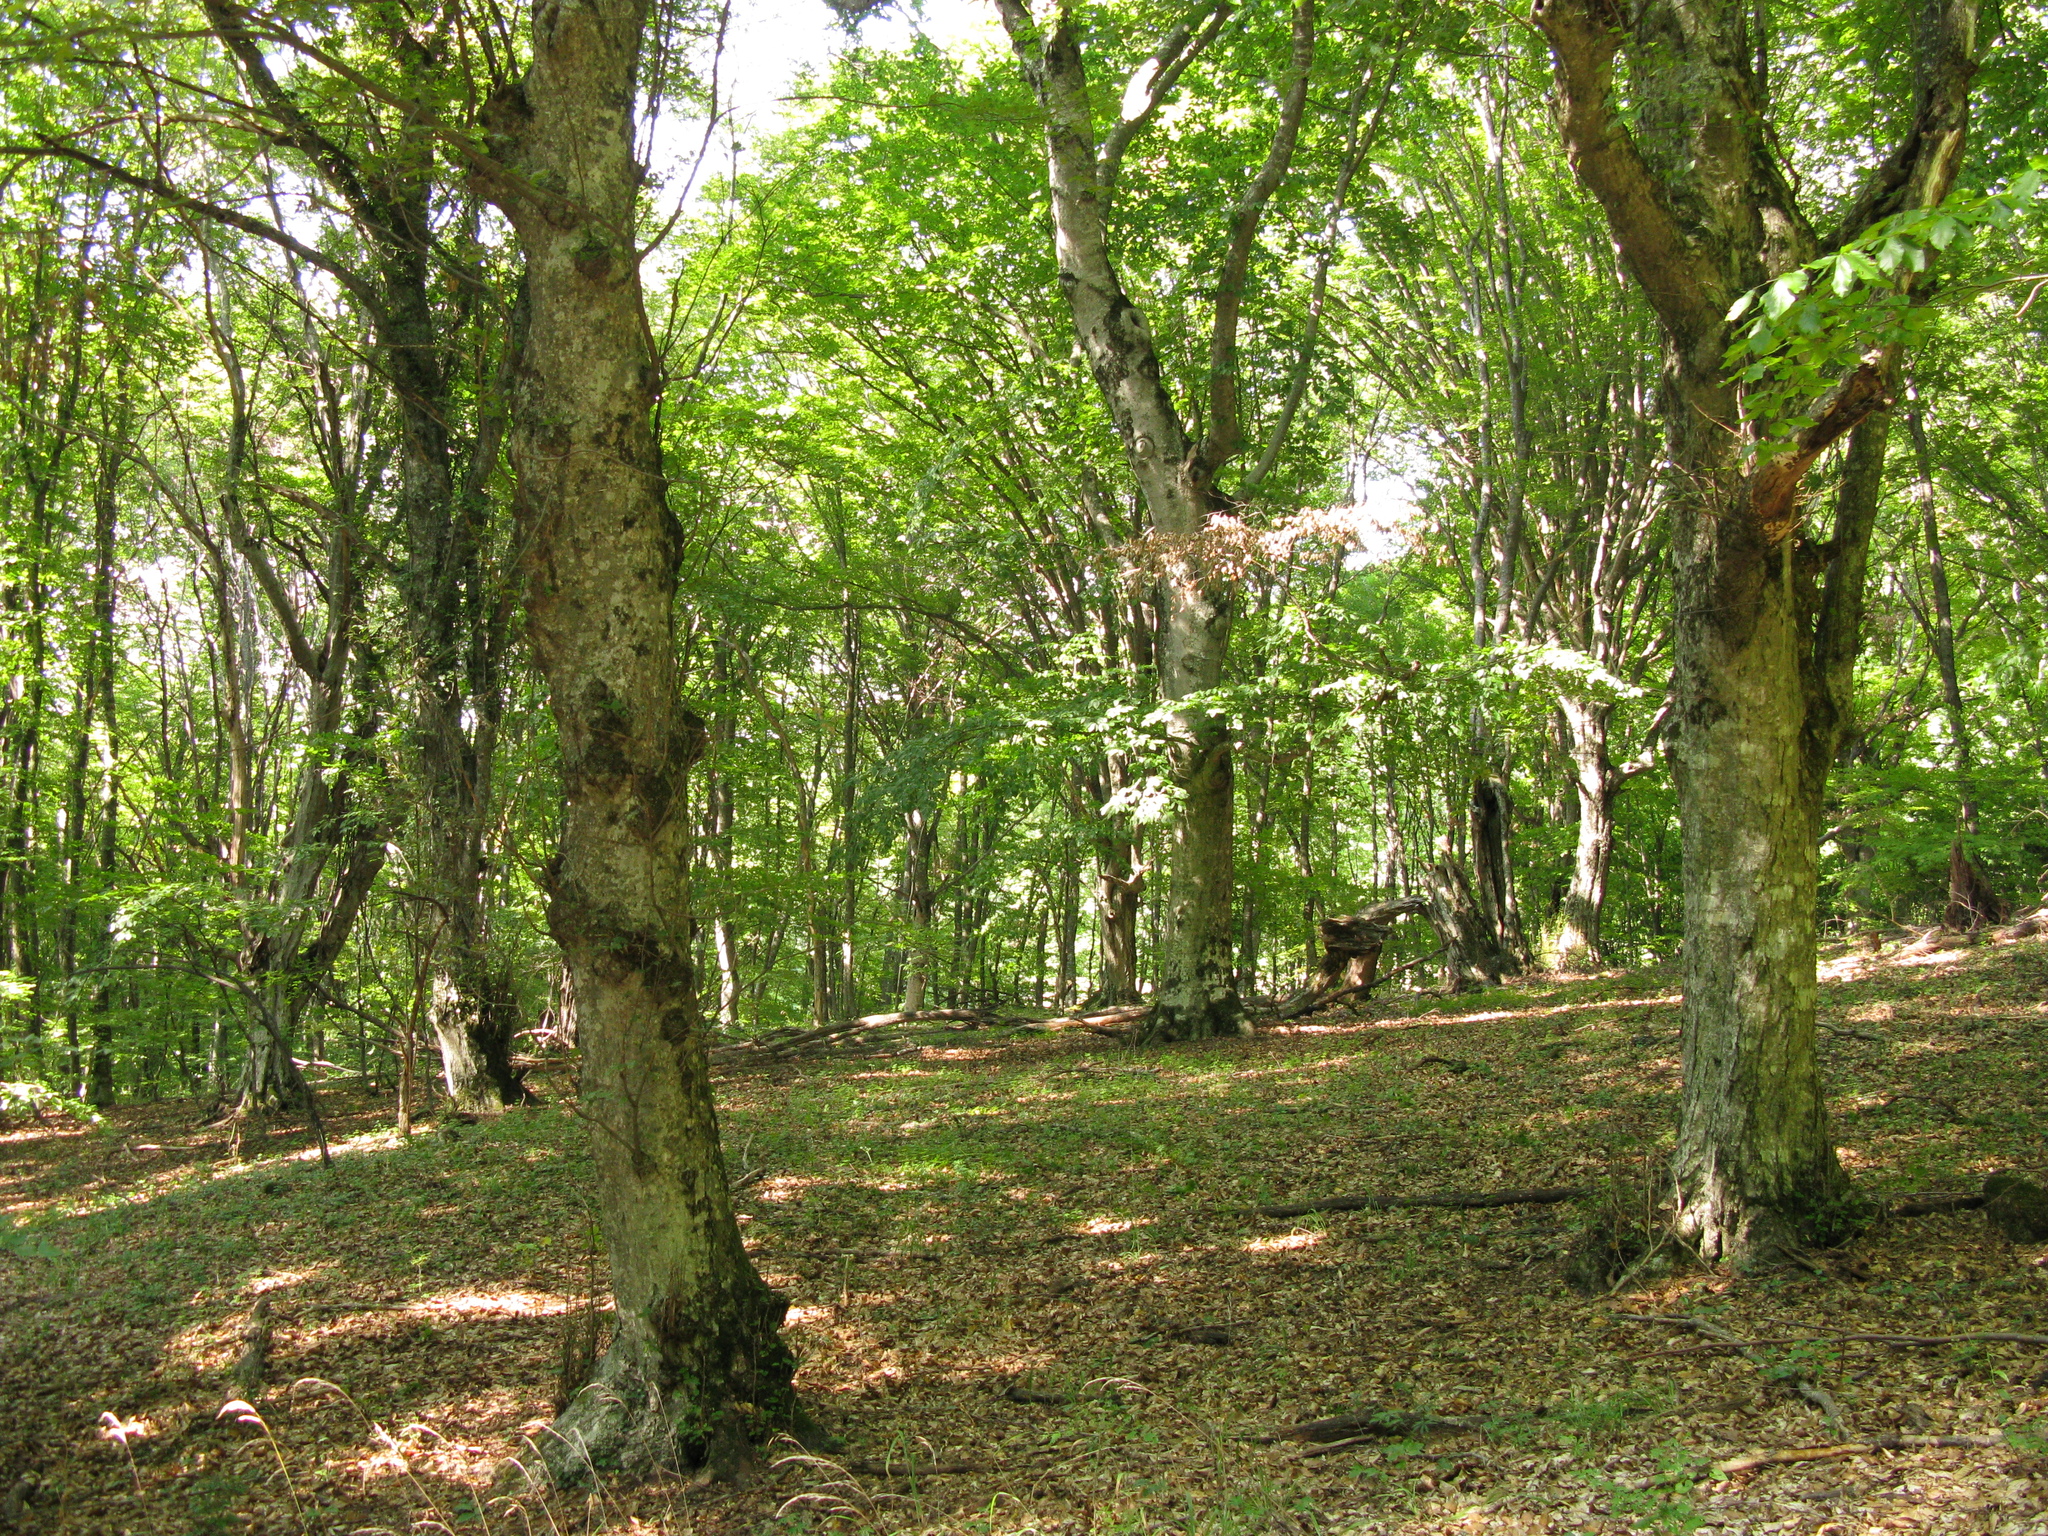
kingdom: Plantae
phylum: Tracheophyta
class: Magnoliopsida
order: Fagales
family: Fagaceae
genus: Fagus
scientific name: Fagus taurica
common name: Crimean beech
